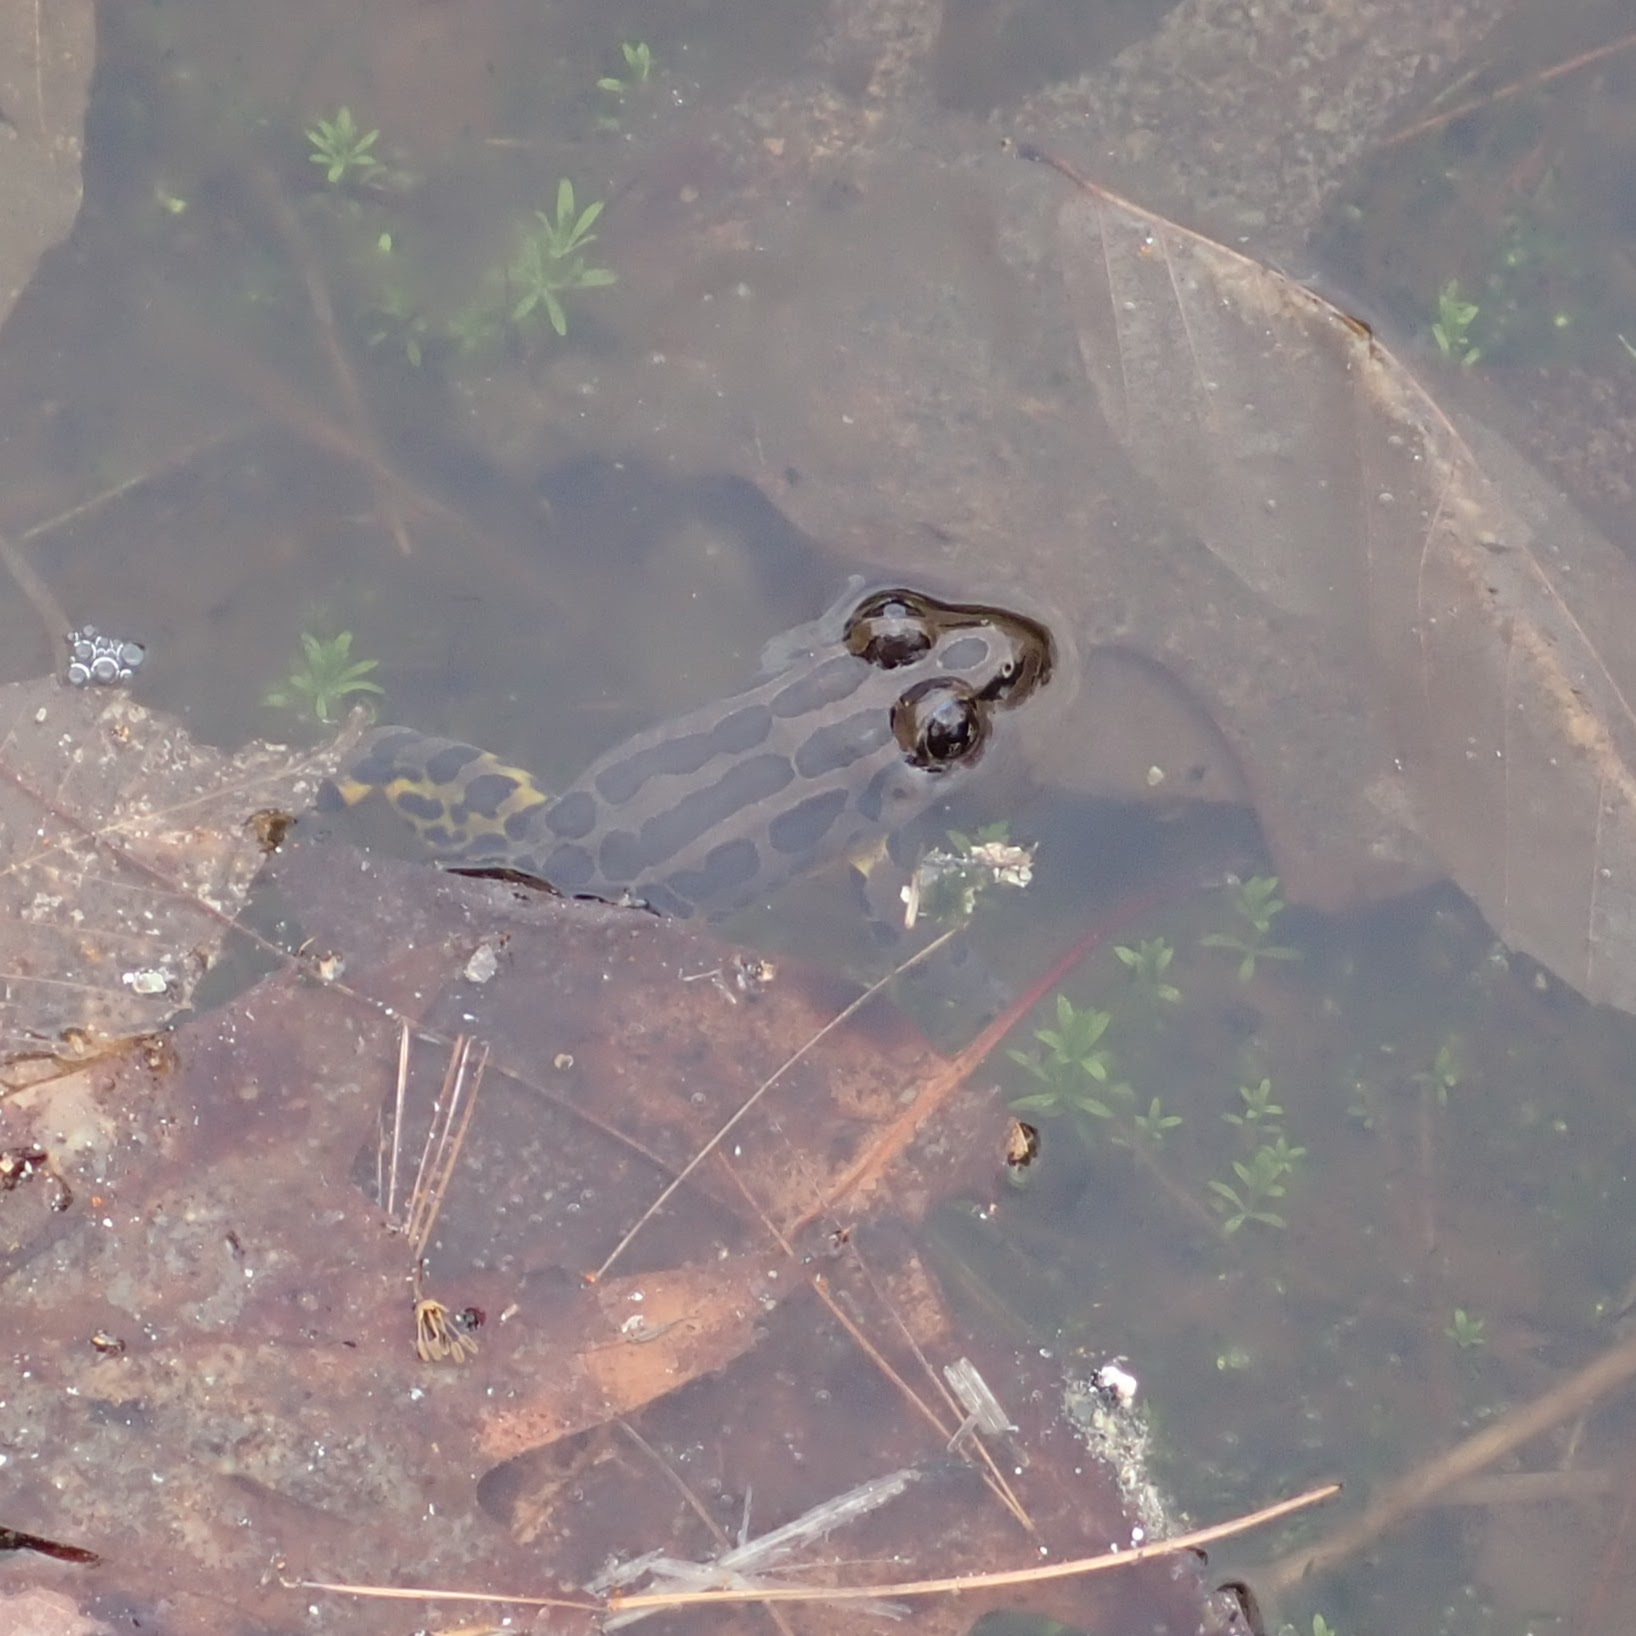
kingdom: Animalia
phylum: Chordata
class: Amphibia
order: Anura
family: Ranidae
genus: Lithobates
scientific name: Lithobates palustris
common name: Pickerel frog
